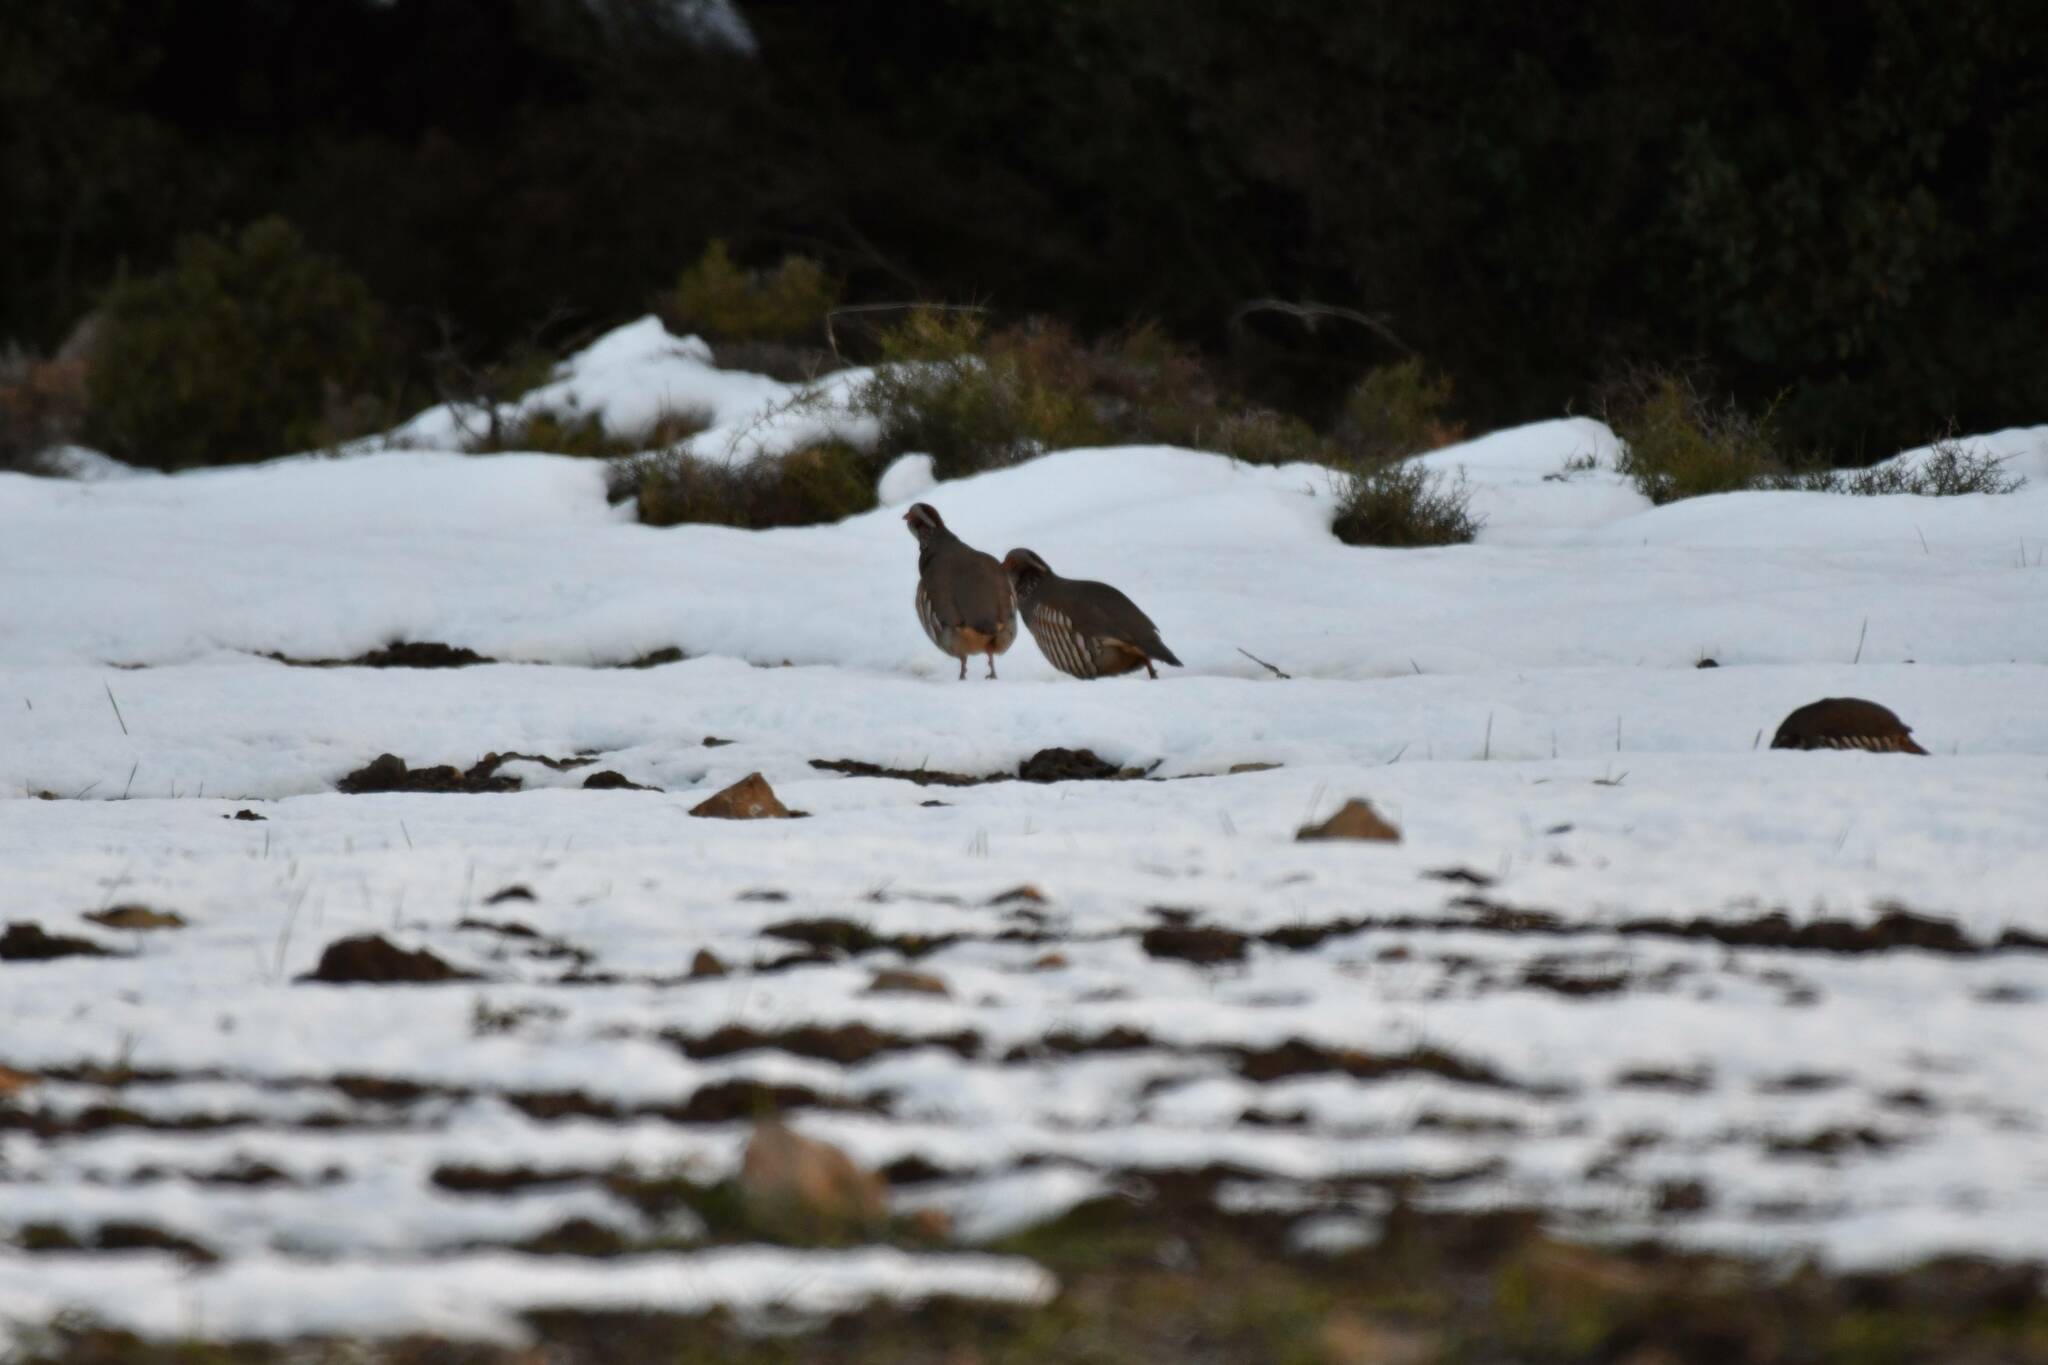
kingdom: Animalia
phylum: Chordata
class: Aves
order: Galliformes
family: Phasianidae
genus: Alectoris
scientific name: Alectoris barbara
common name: Barbary partridge
